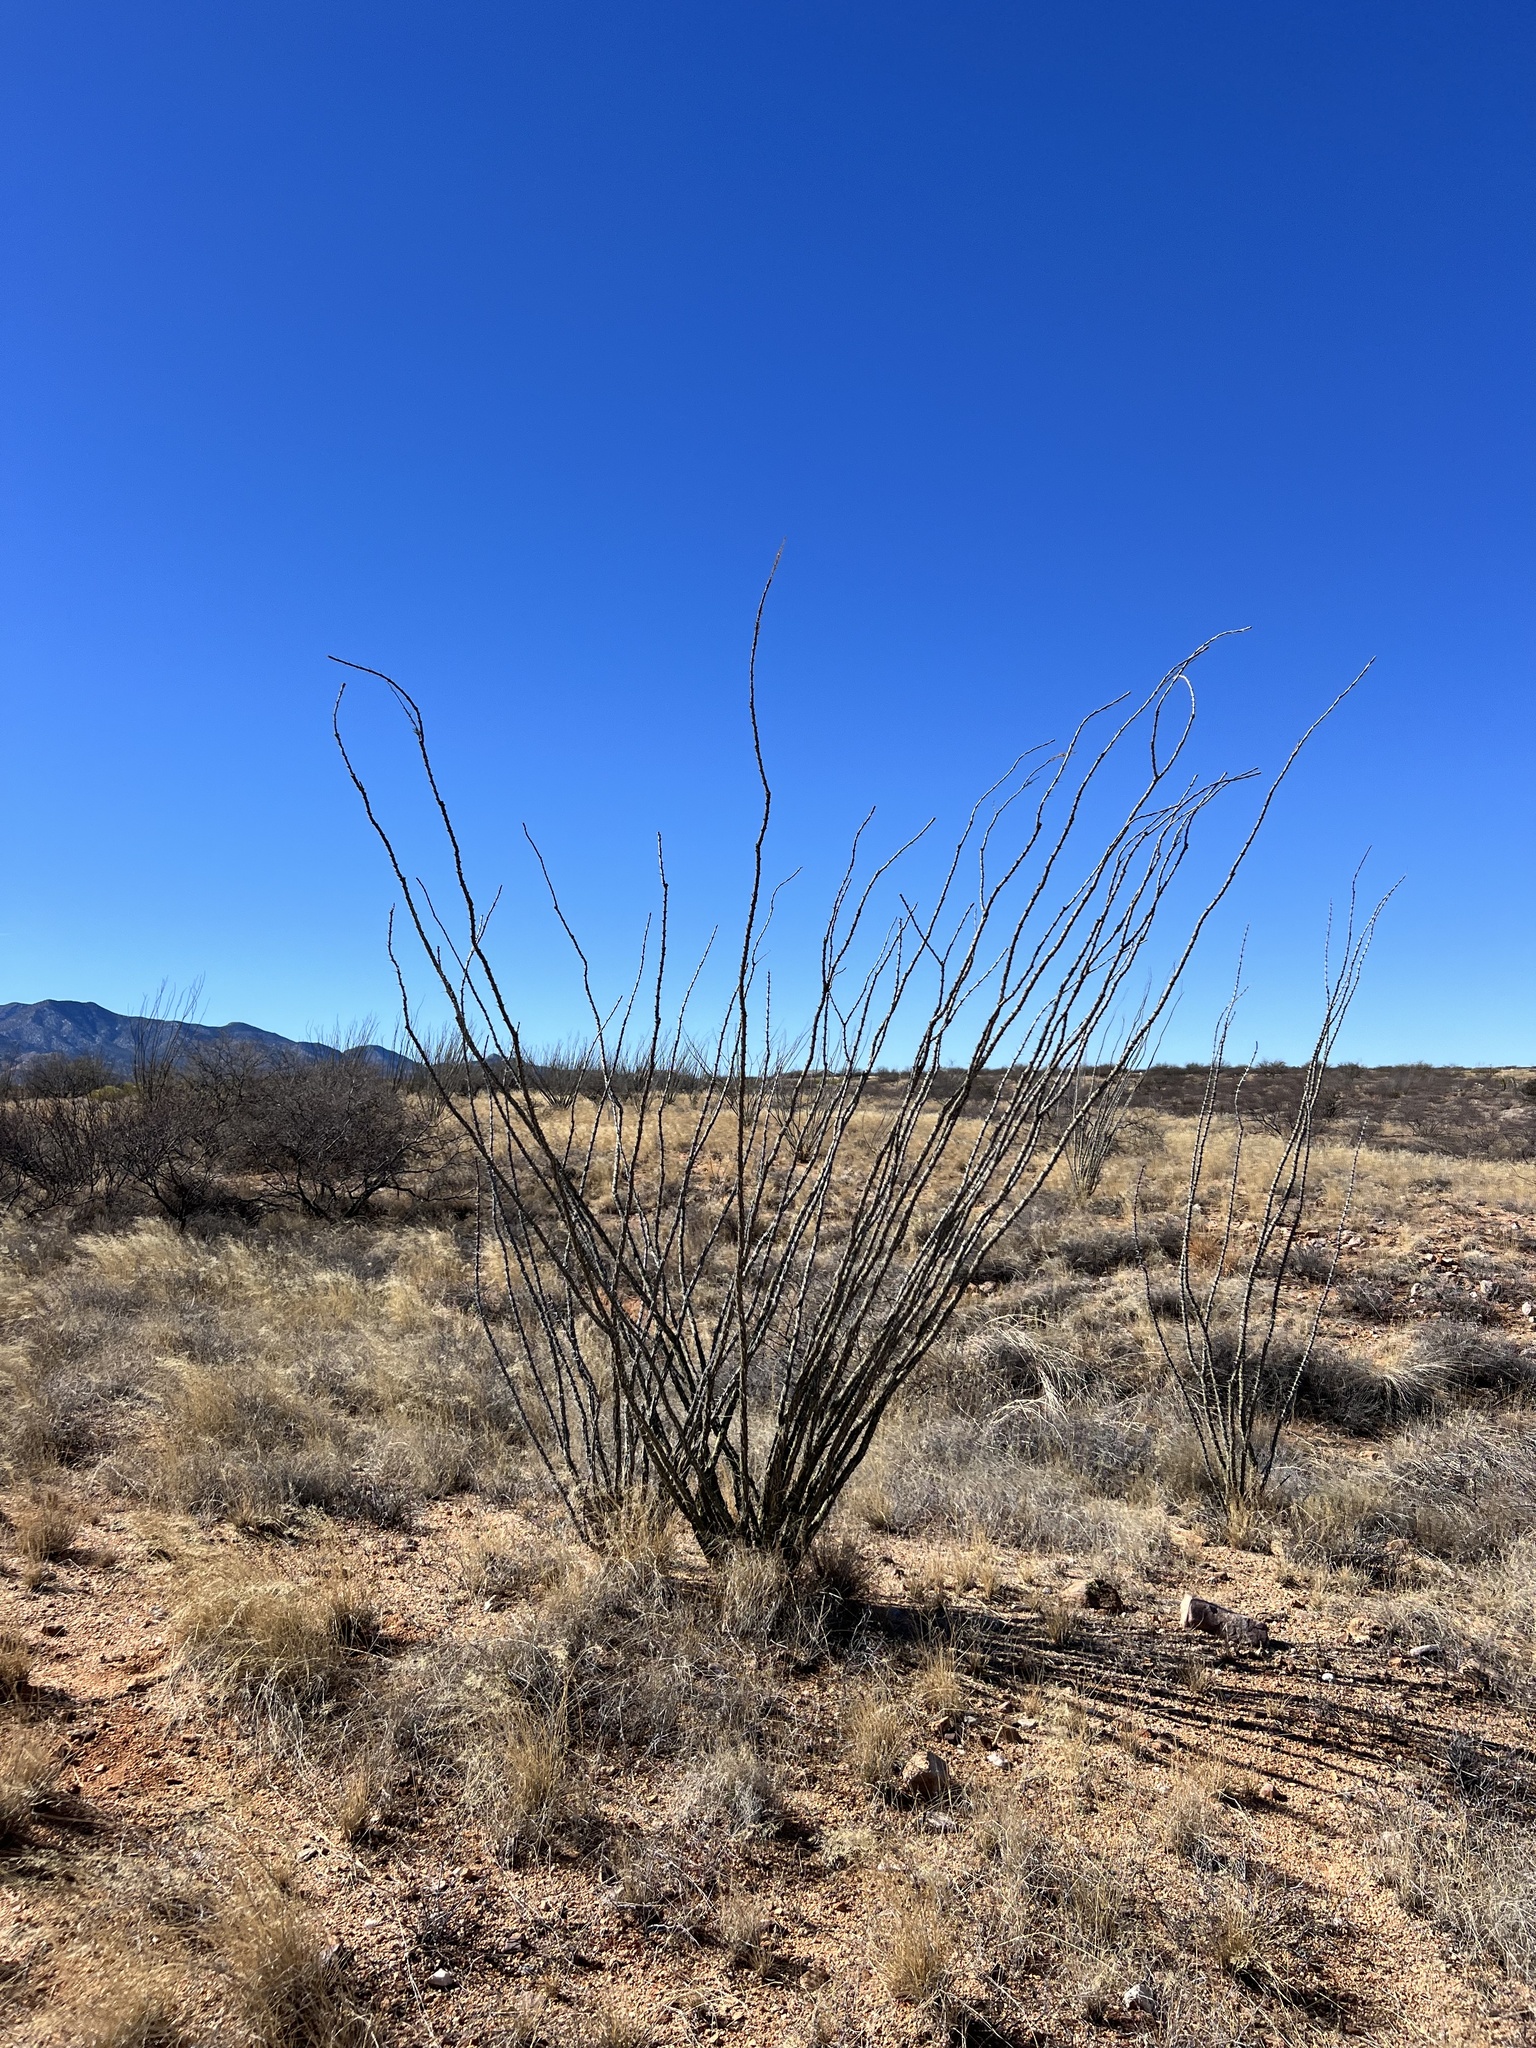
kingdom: Plantae
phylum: Tracheophyta
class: Magnoliopsida
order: Ericales
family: Fouquieriaceae
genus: Fouquieria
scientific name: Fouquieria splendens
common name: Vine-cactus
